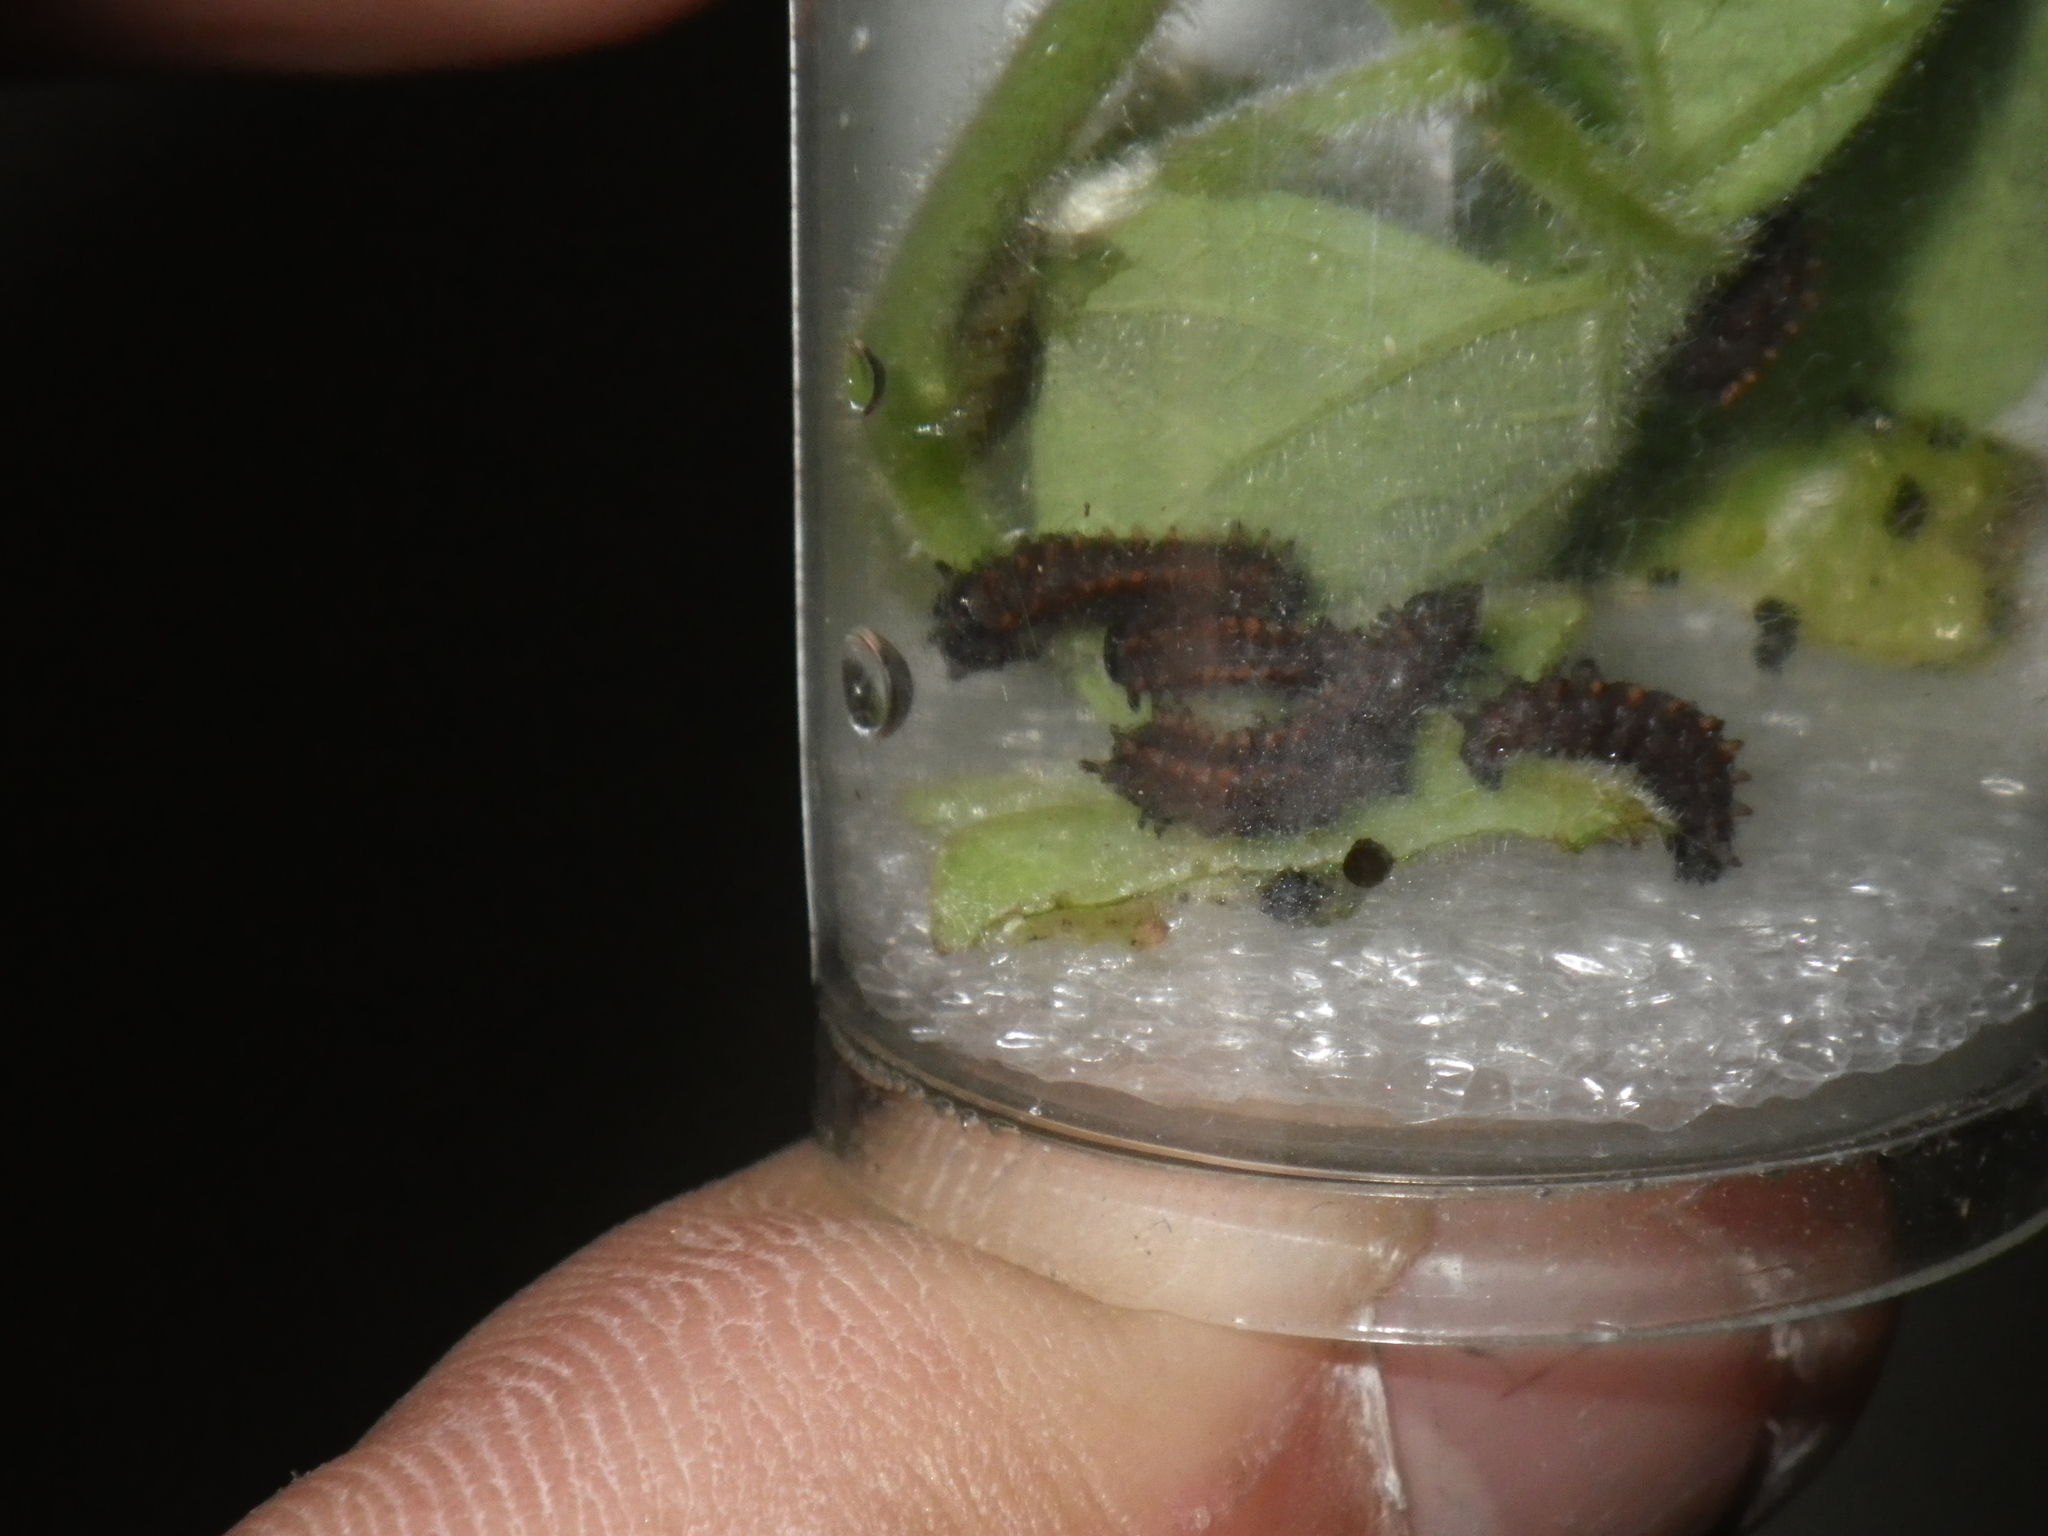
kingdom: Animalia
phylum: Arthropoda
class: Insecta
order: Lepidoptera
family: Papilionidae
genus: Battus
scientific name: Battus philenor
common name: Pipevine swallowtail
